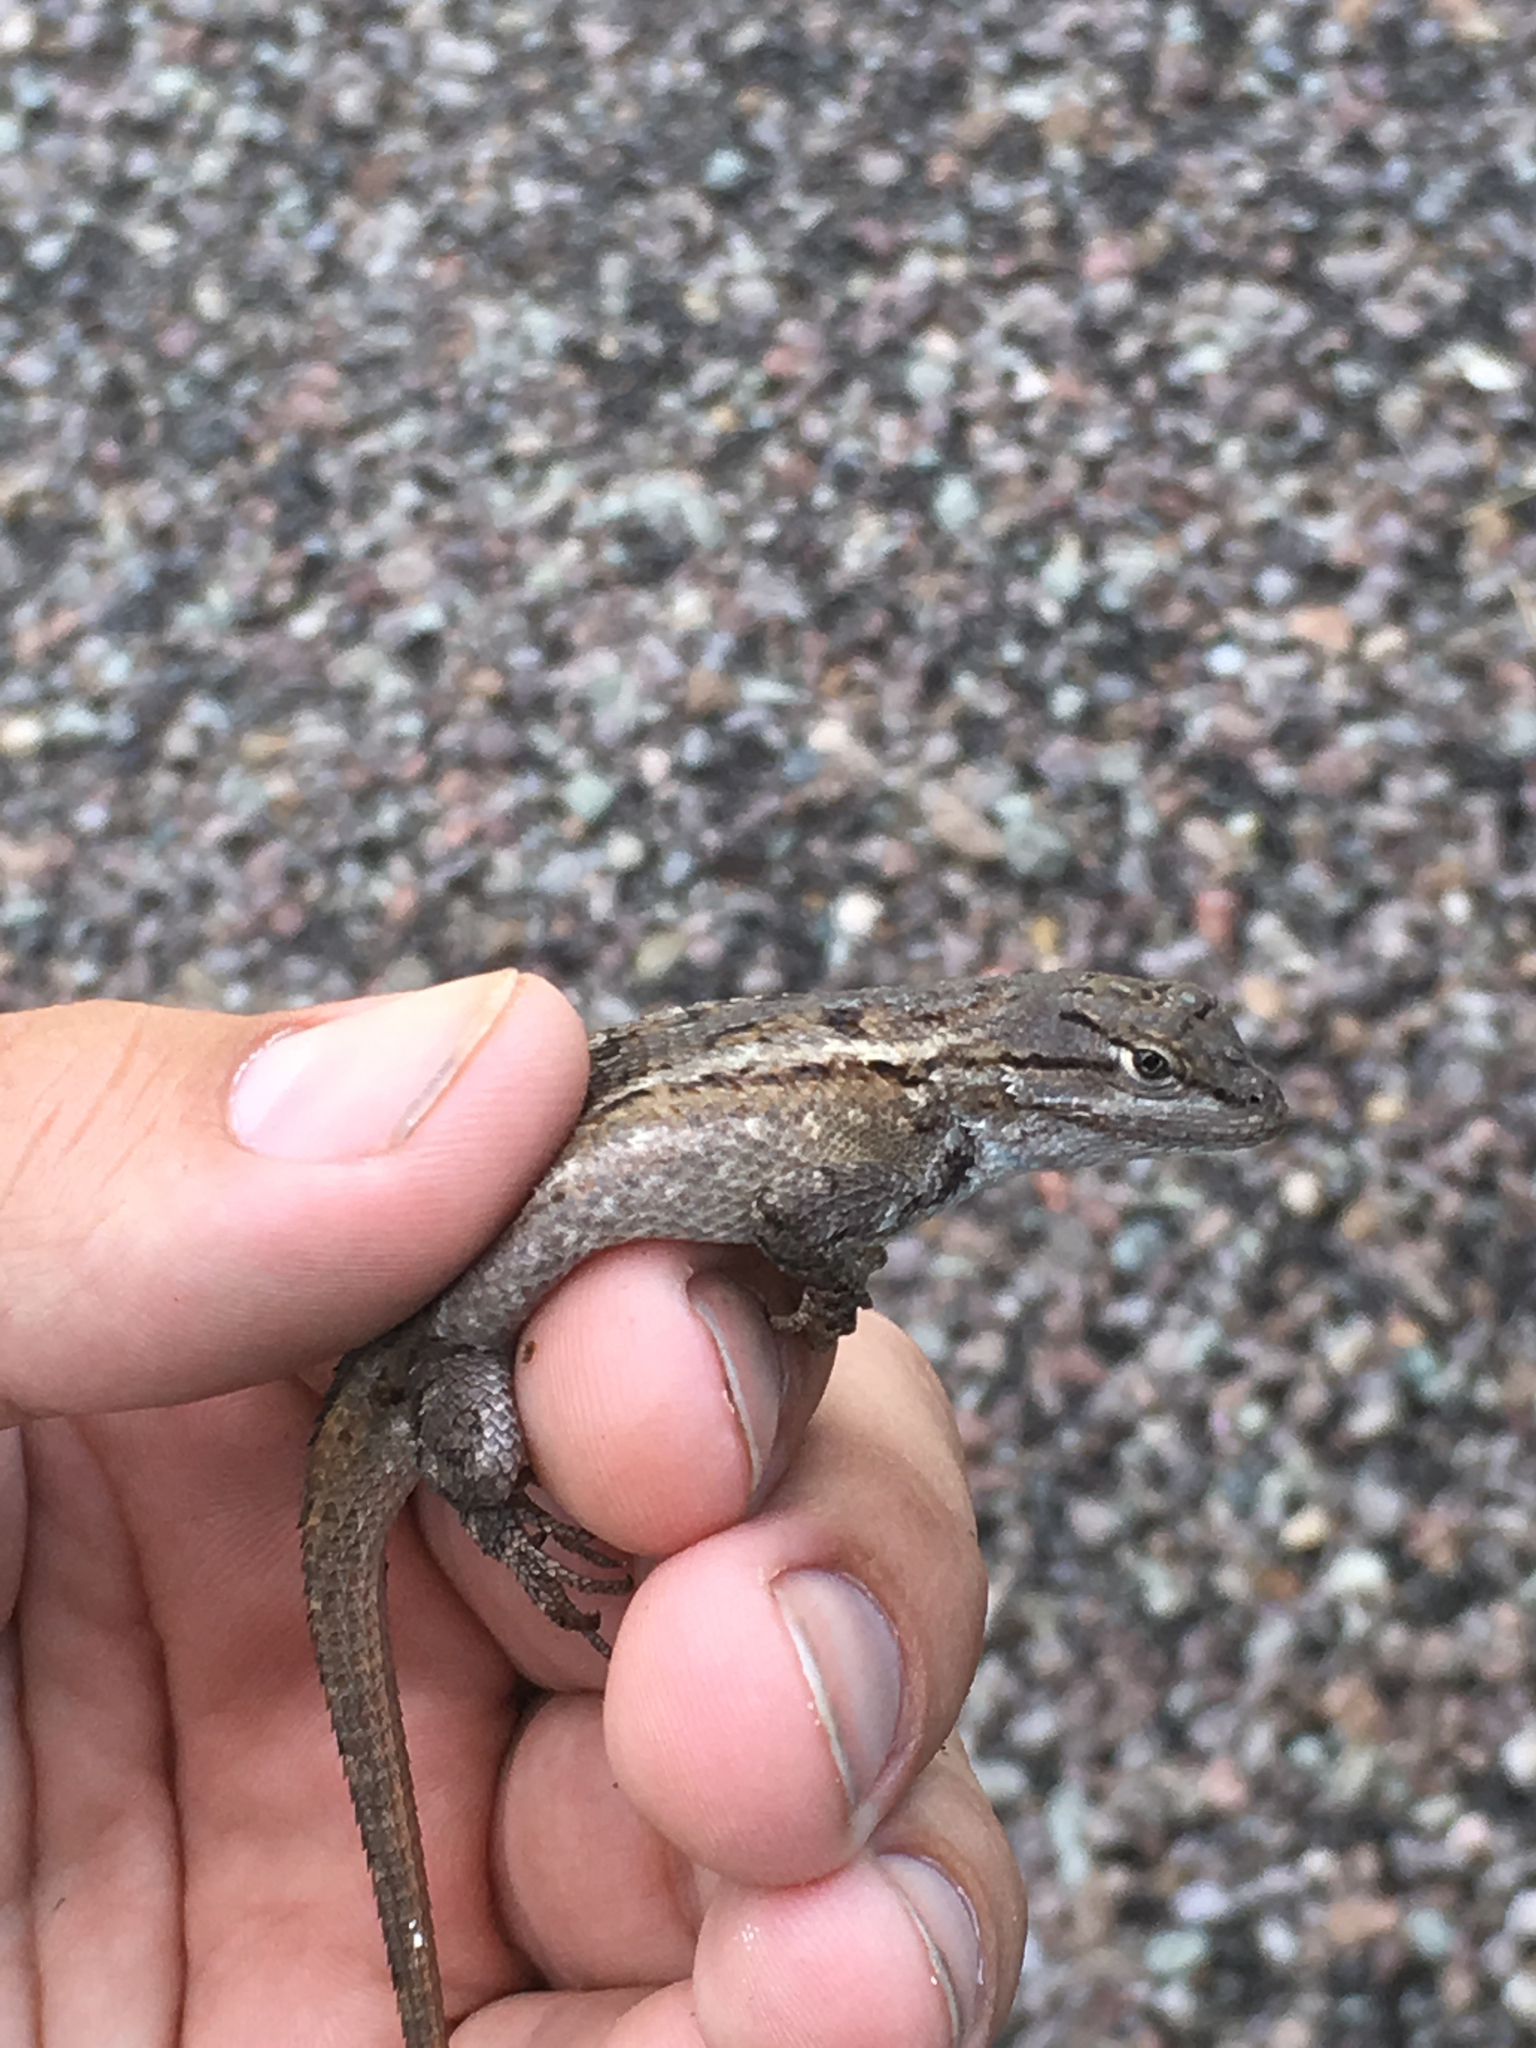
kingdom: Animalia
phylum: Chordata
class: Squamata
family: Phrynosomatidae
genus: Sceloporus
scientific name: Sceloporus cowlesi
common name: White sands prairie lizard
